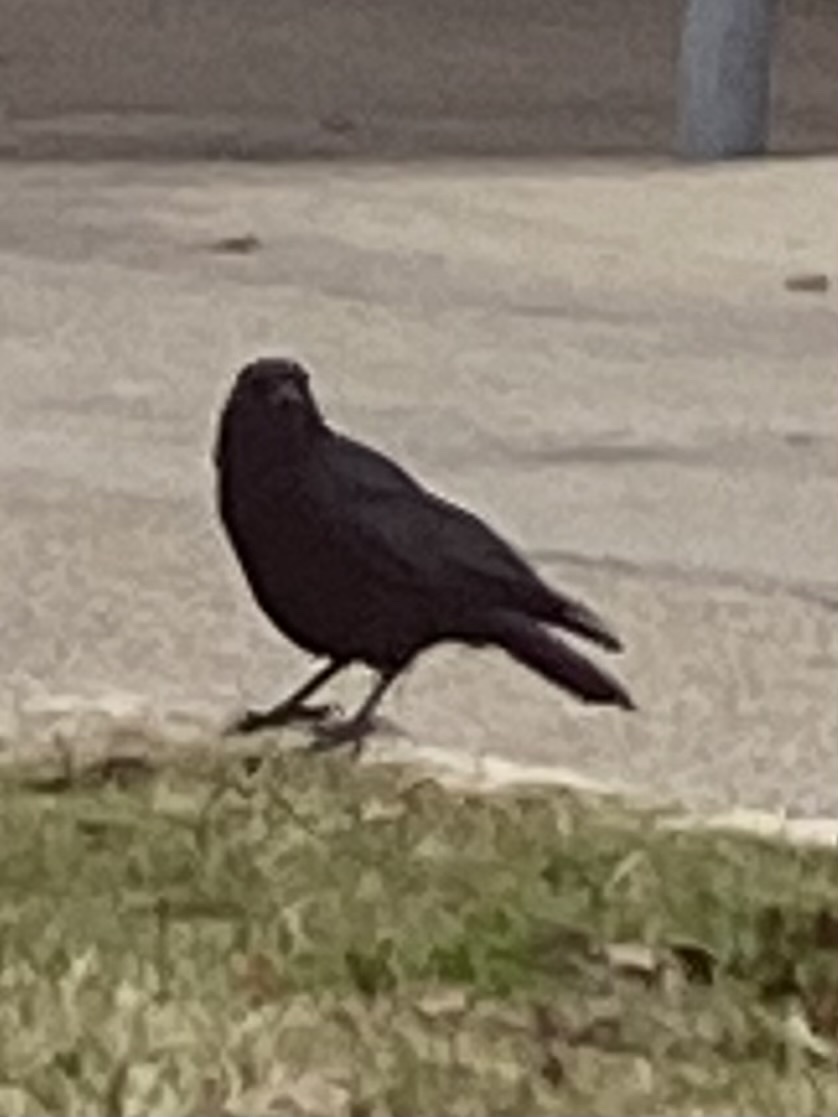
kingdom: Animalia
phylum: Chordata
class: Aves
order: Passeriformes
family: Corvidae
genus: Corvus
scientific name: Corvus brachyrhynchos
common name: American crow
